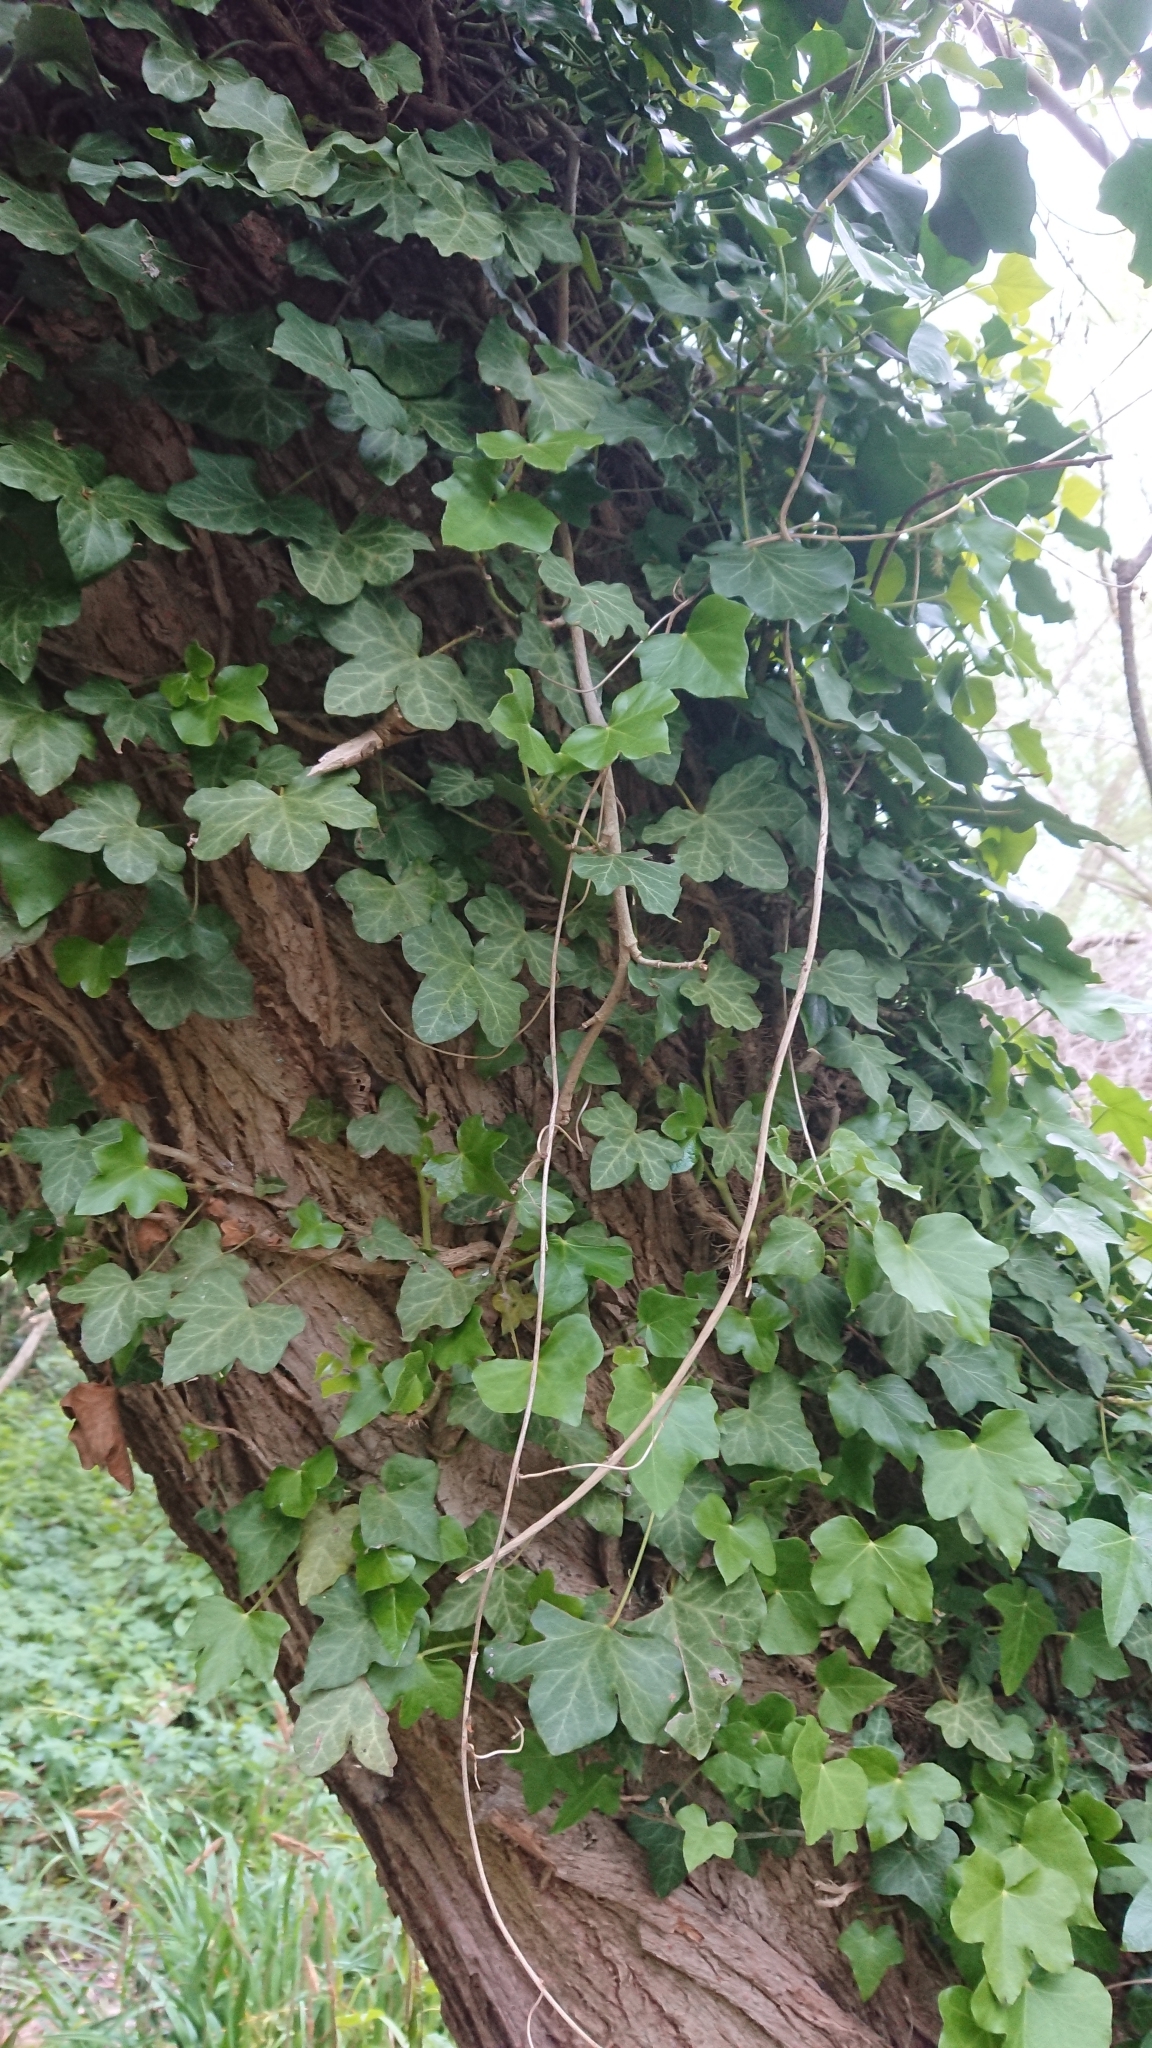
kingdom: Plantae
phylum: Tracheophyta
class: Magnoliopsida
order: Apiales
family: Araliaceae
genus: Hedera
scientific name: Hedera helix
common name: Ivy
